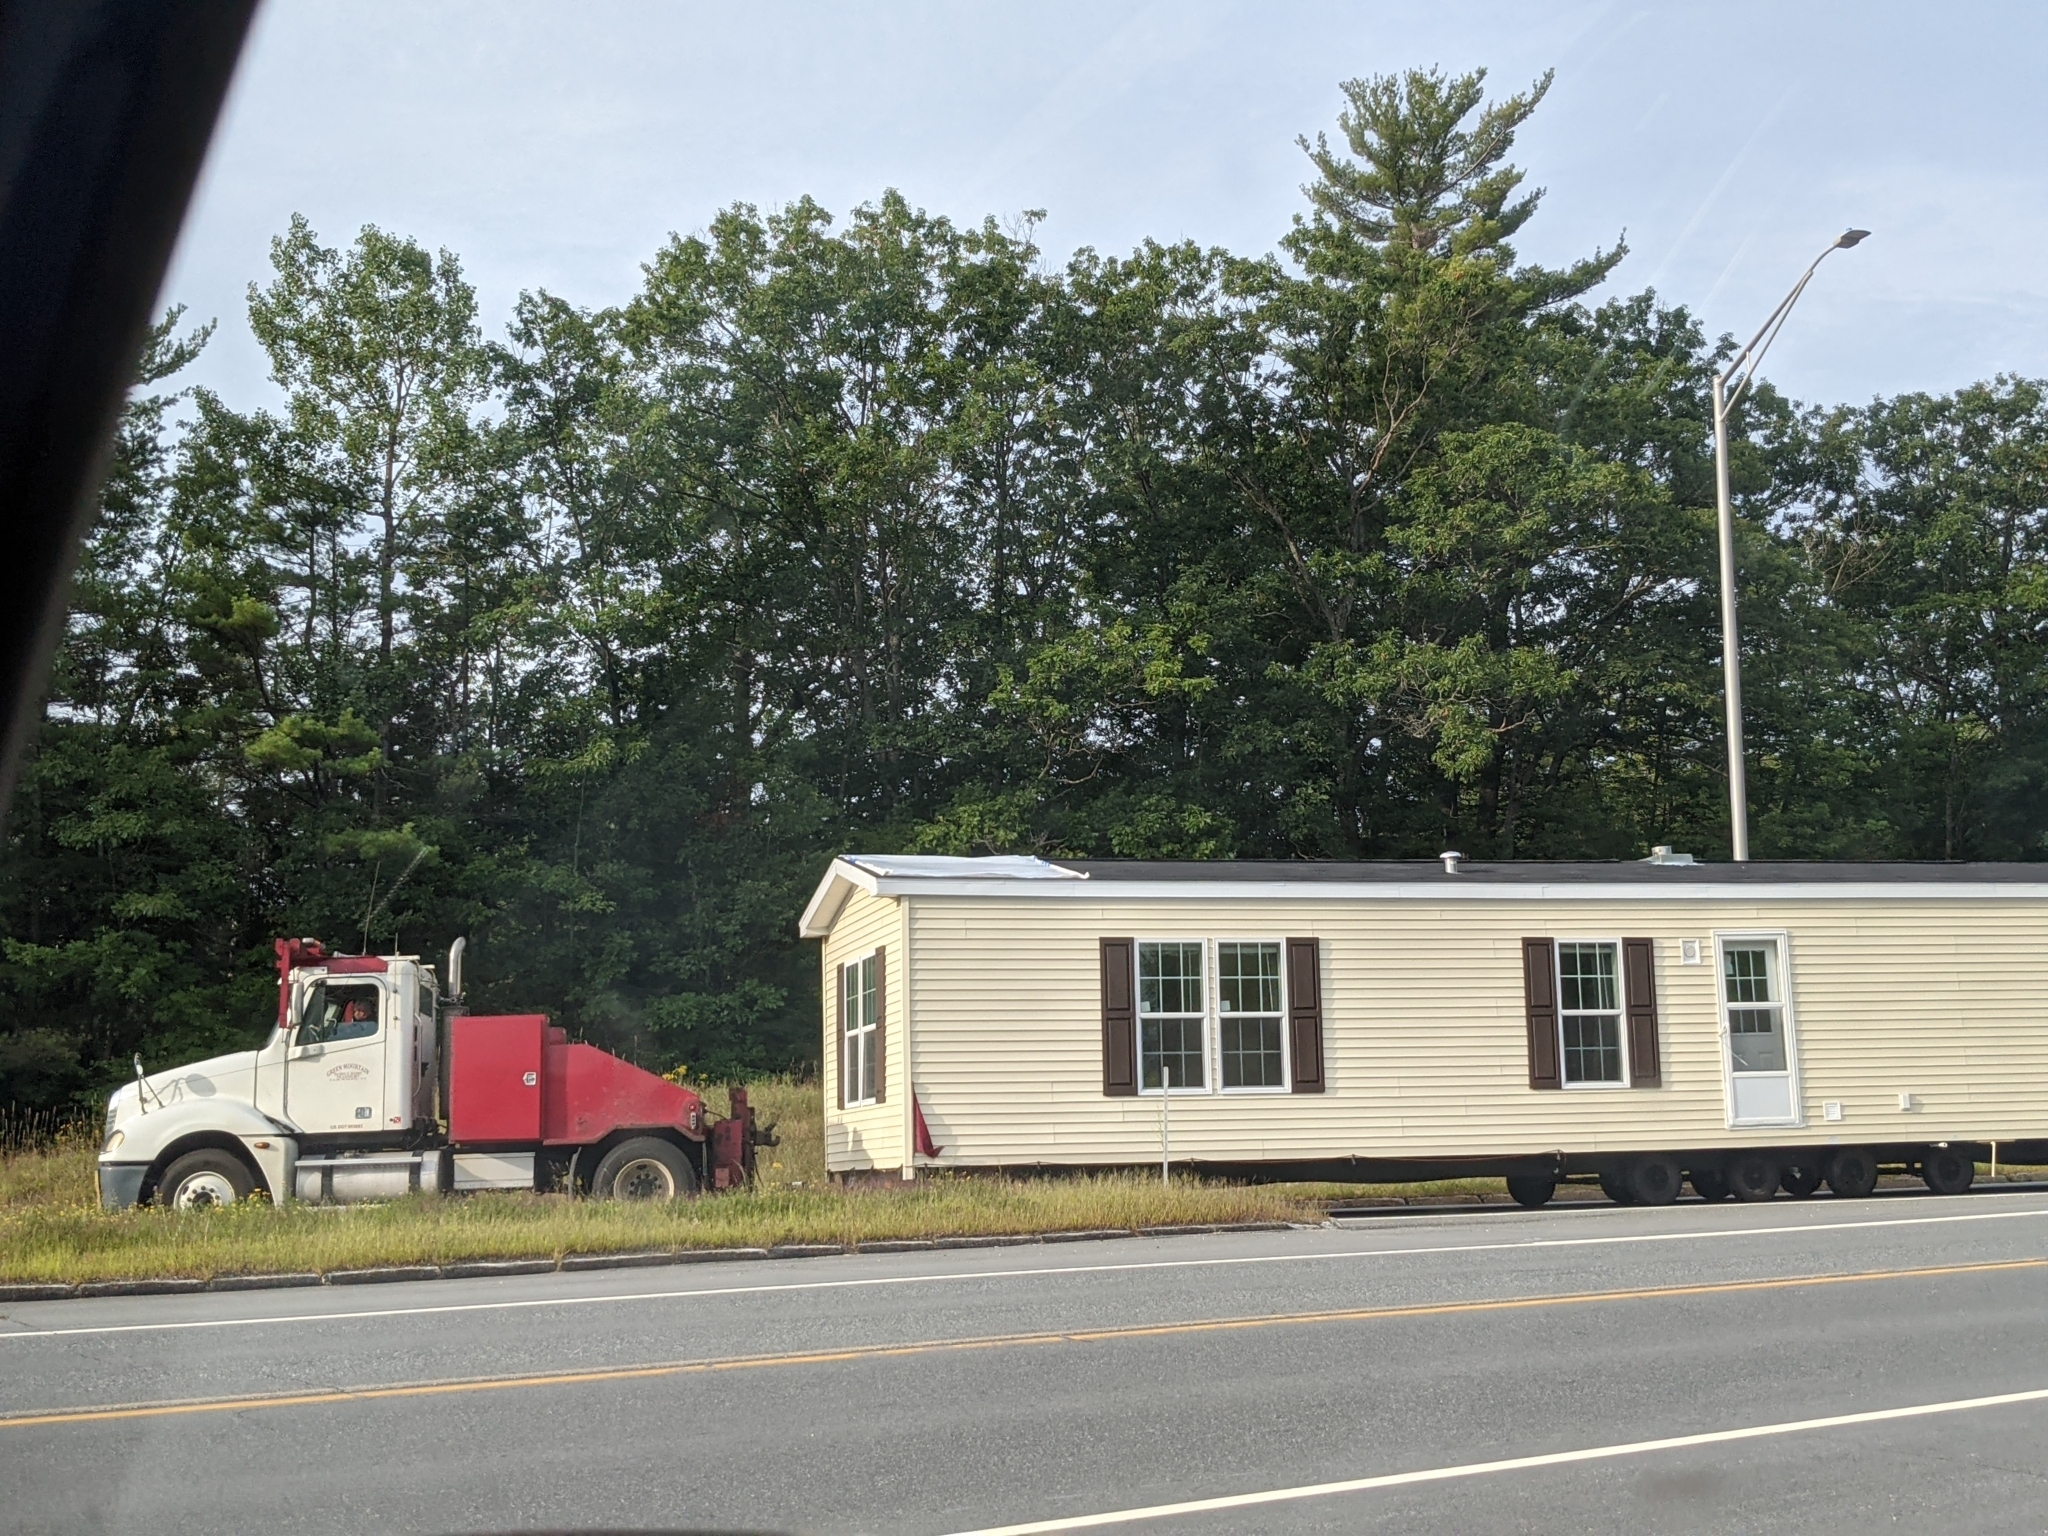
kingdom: Plantae
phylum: Tracheophyta
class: Pinopsida
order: Pinales
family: Pinaceae
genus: Pinus
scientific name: Pinus strobus
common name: Weymouth pine
